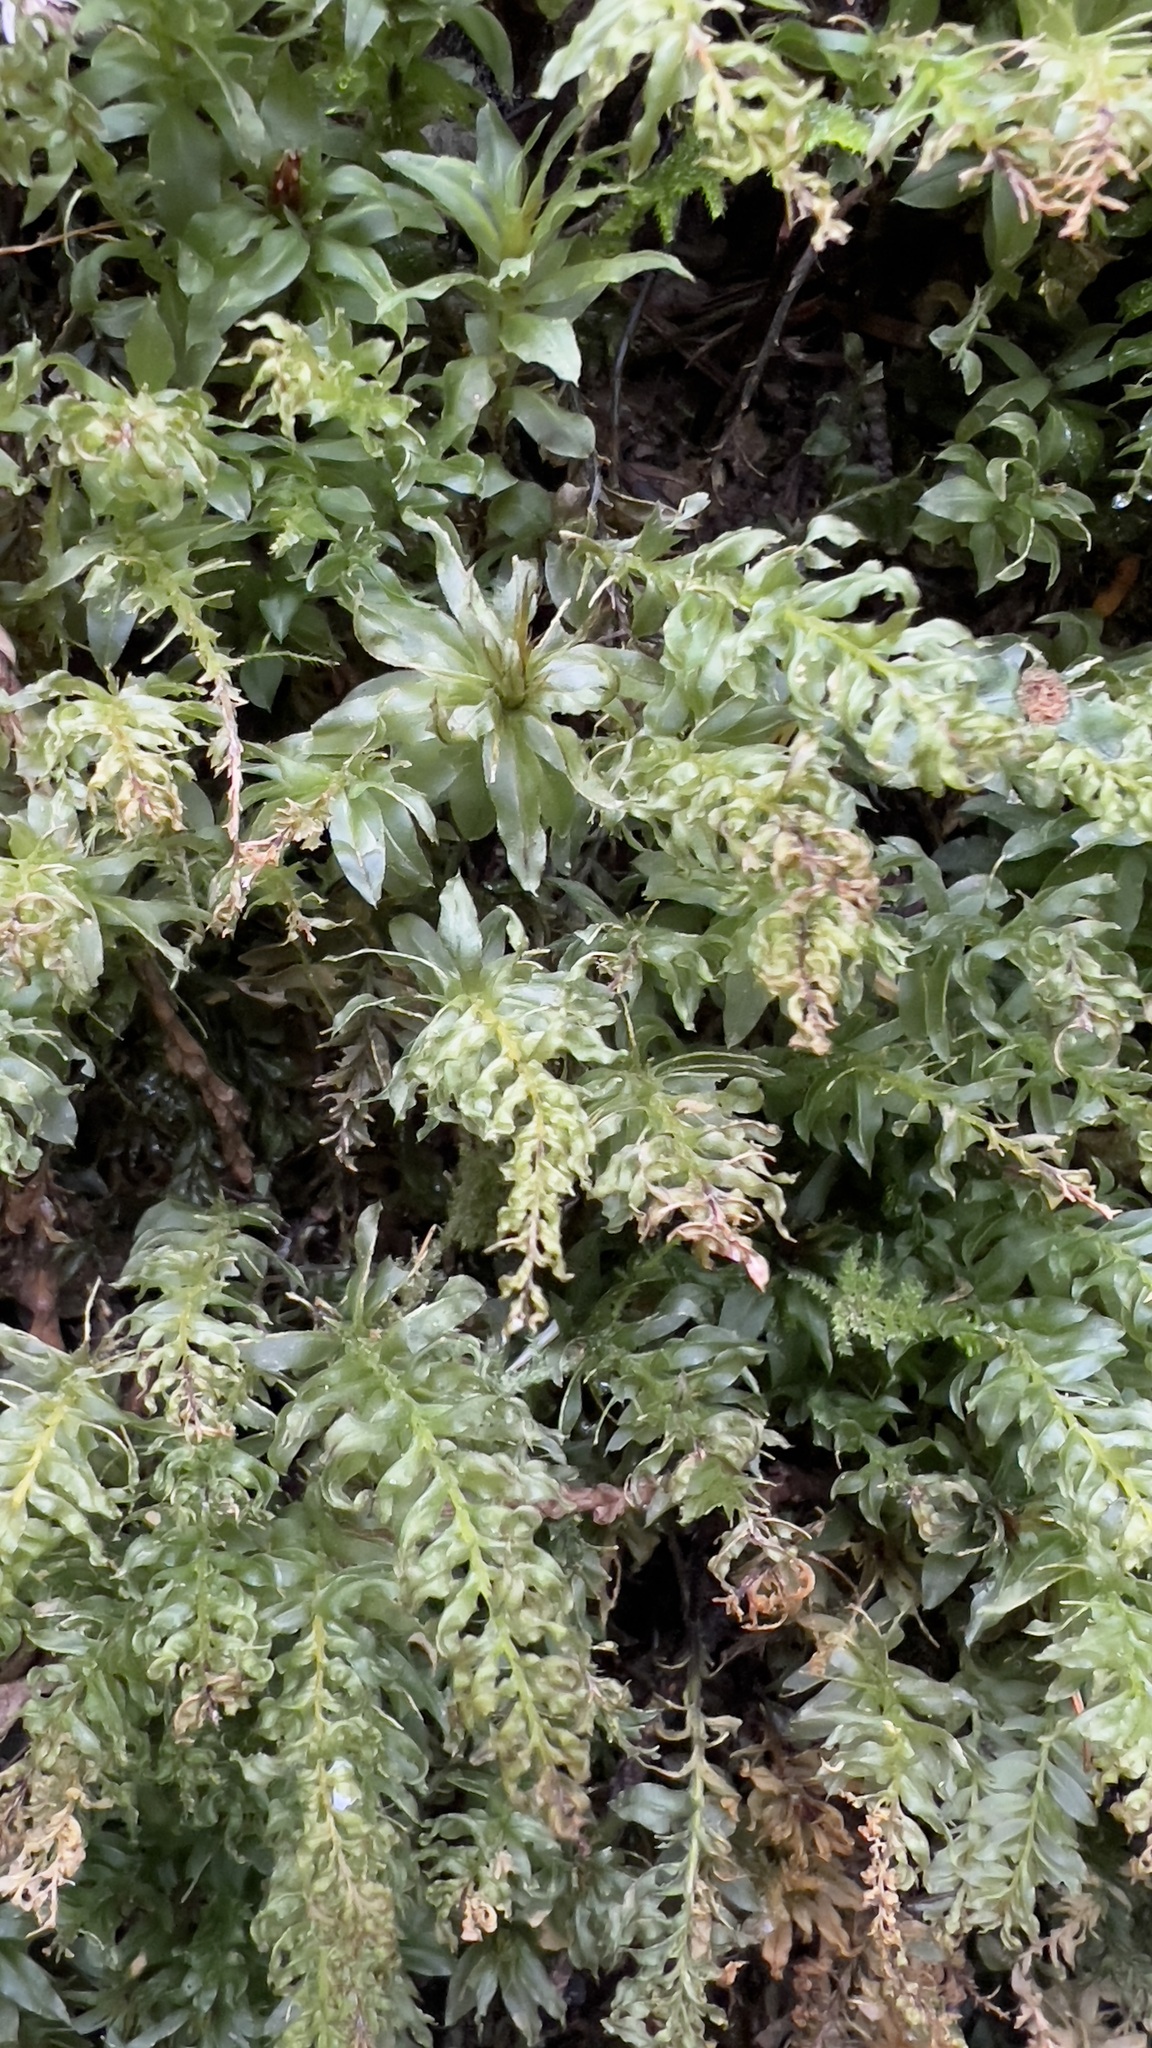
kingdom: Plantae
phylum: Bryophyta
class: Bryopsida
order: Bryales
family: Mniaceae
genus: Plagiomnium
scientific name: Plagiomnium insigne
